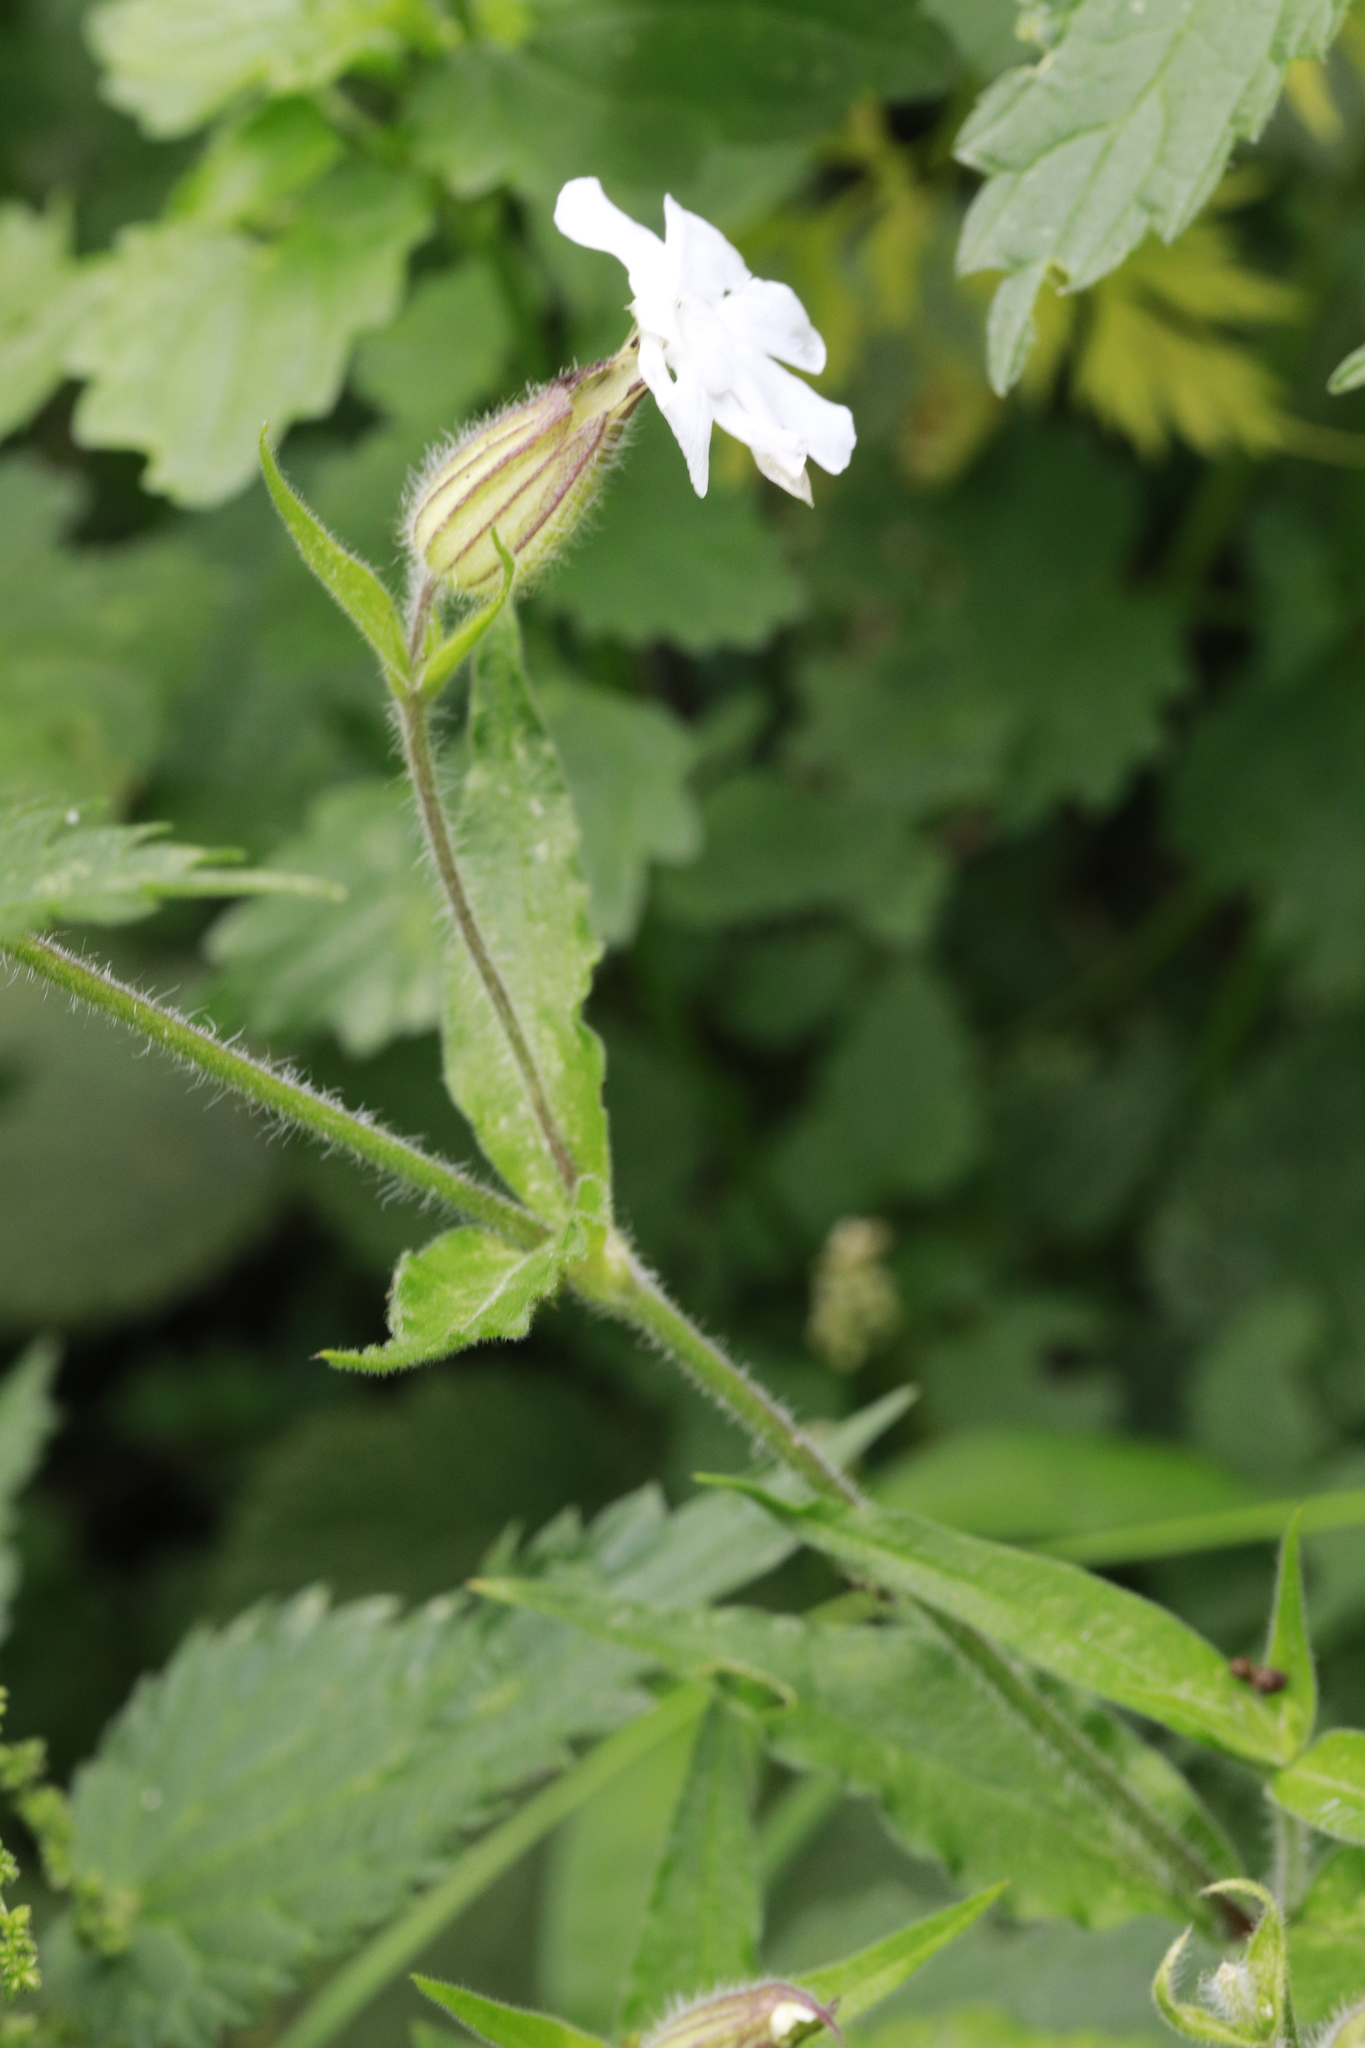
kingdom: Plantae
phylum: Tracheophyta
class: Magnoliopsida
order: Caryophyllales
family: Caryophyllaceae
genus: Silene
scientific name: Silene latifolia
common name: White campion
